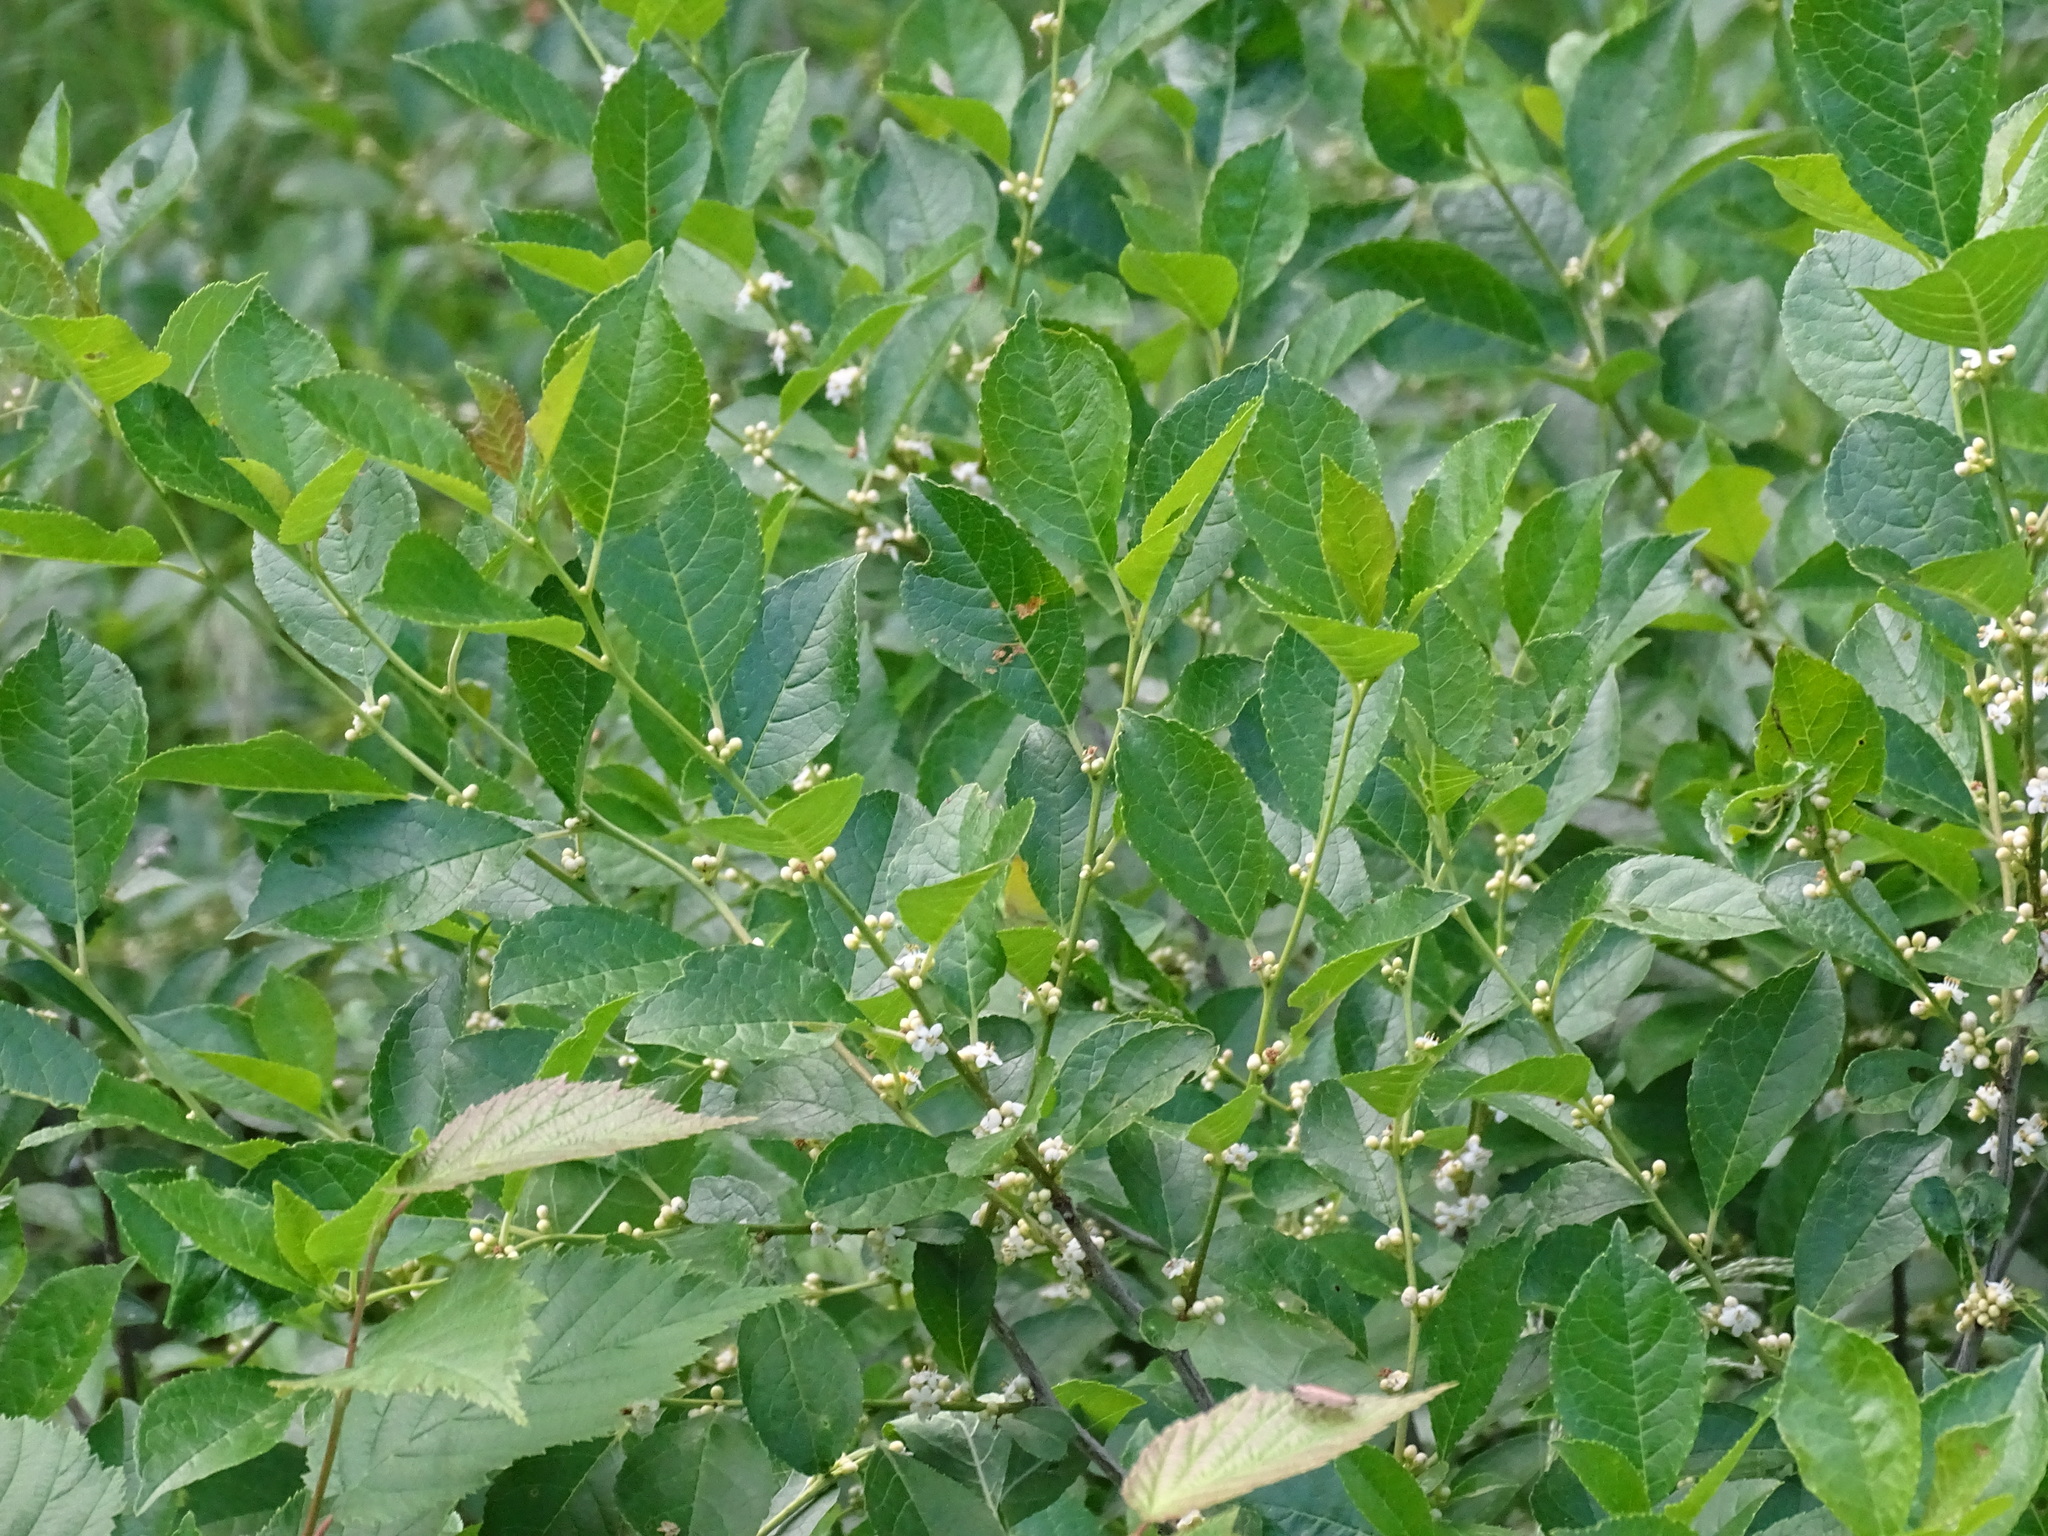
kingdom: Plantae
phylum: Tracheophyta
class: Magnoliopsida
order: Aquifoliales
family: Aquifoliaceae
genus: Ilex
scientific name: Ilex verticillata
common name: Virginia winterberry
